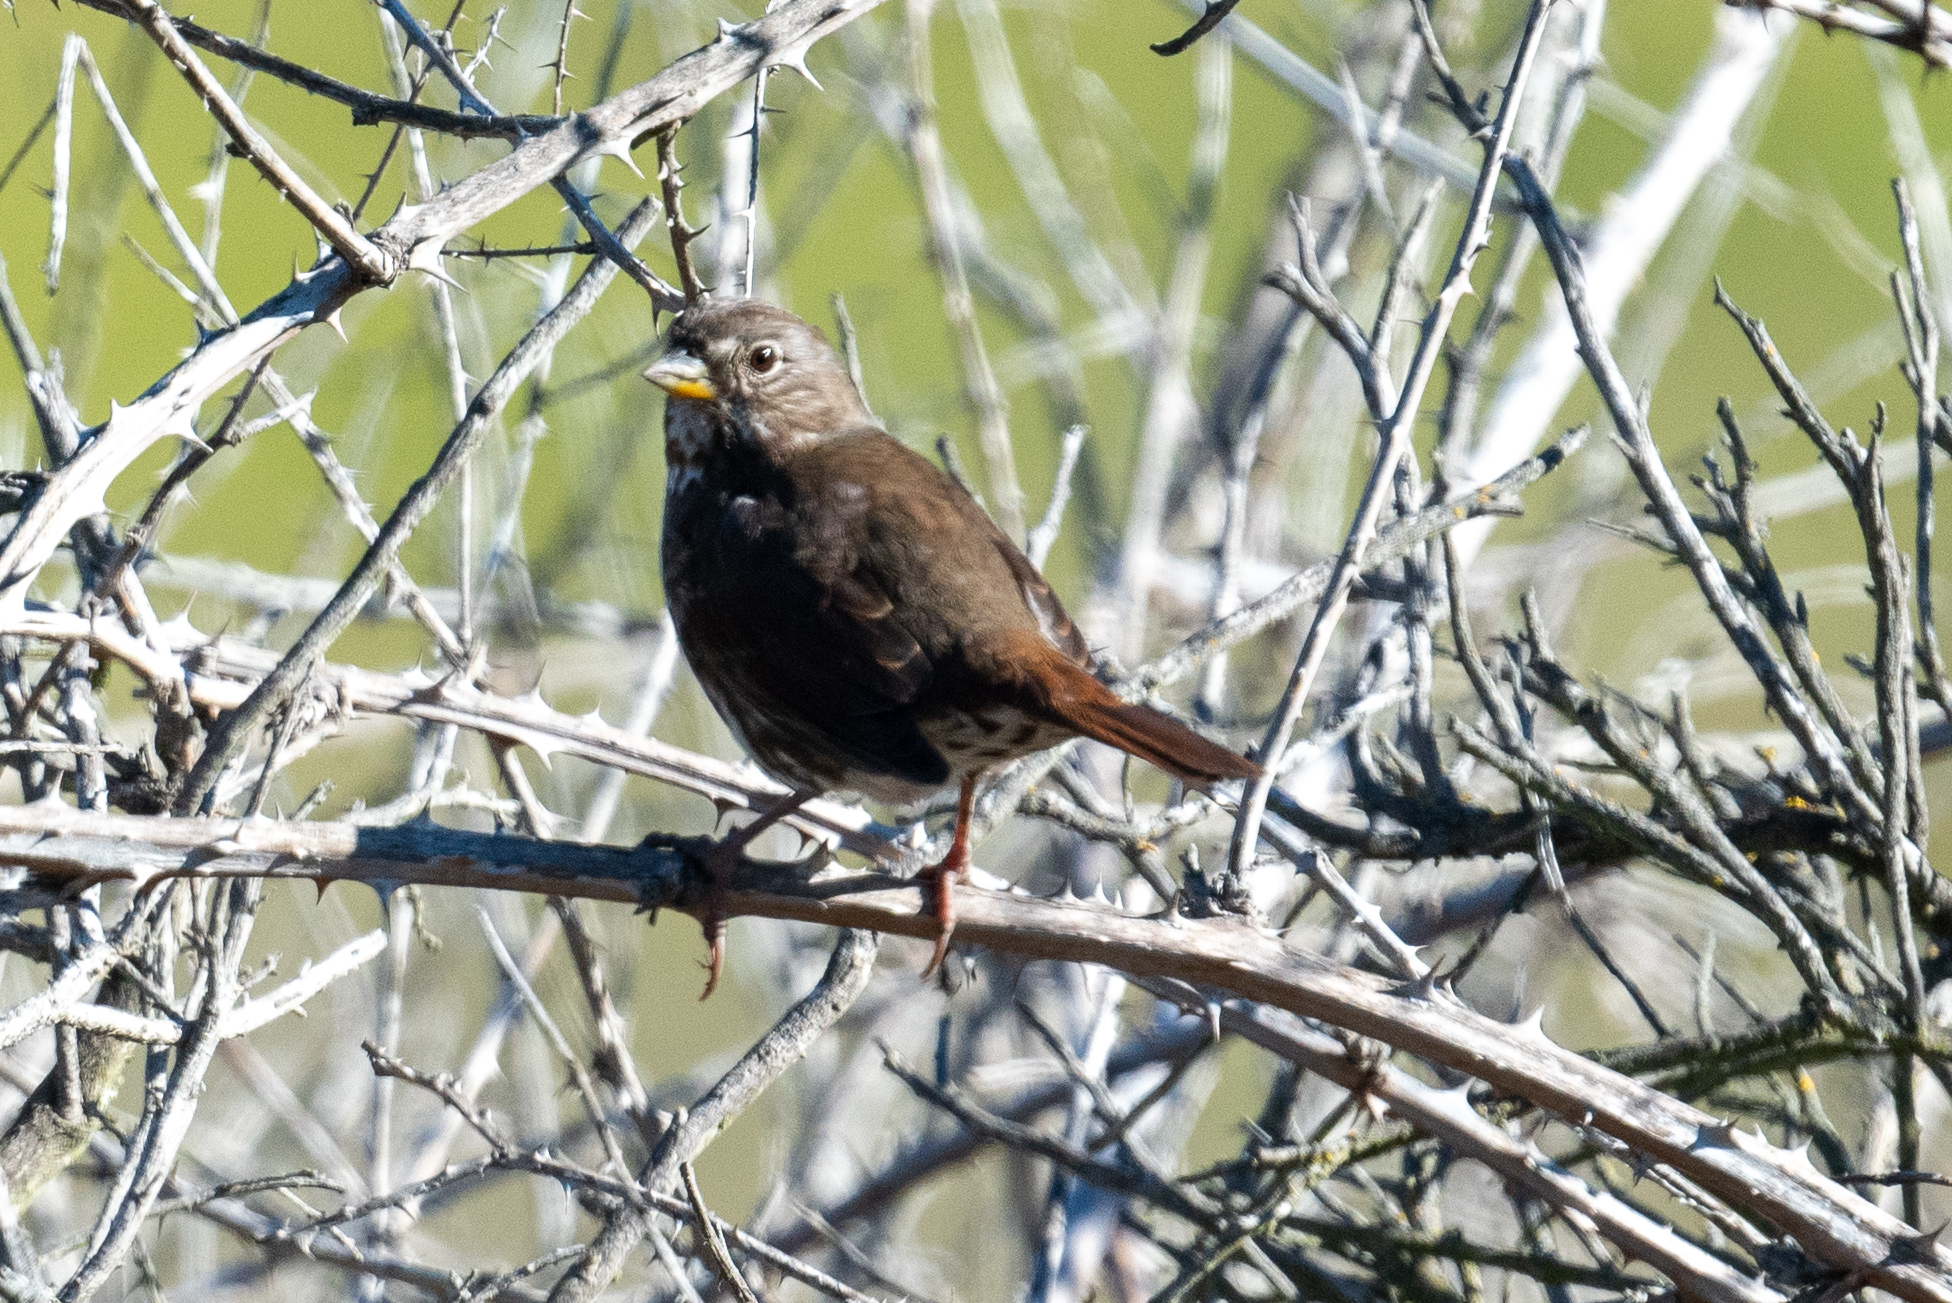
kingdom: Animalia
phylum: Chordata
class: Aves
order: Passeriformes
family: Passerellidae
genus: Passerella
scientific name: Passerella iliaca
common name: Fox sparrow
